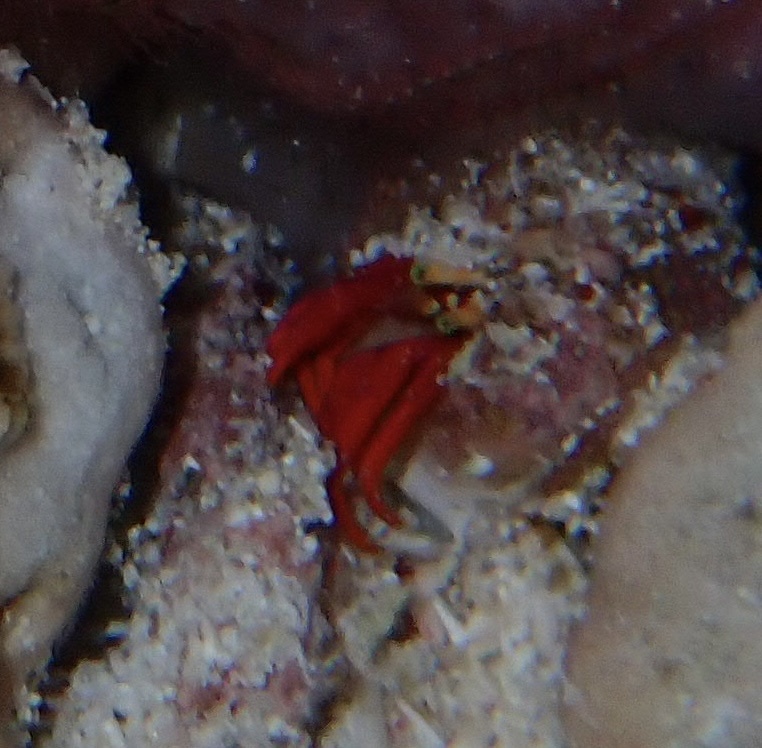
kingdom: Animalia
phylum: Arthropoda
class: Malacostraca
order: Decapoda
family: Diogenidae
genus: Paguristes
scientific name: Paguristes cadenati
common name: Red reef hermit
